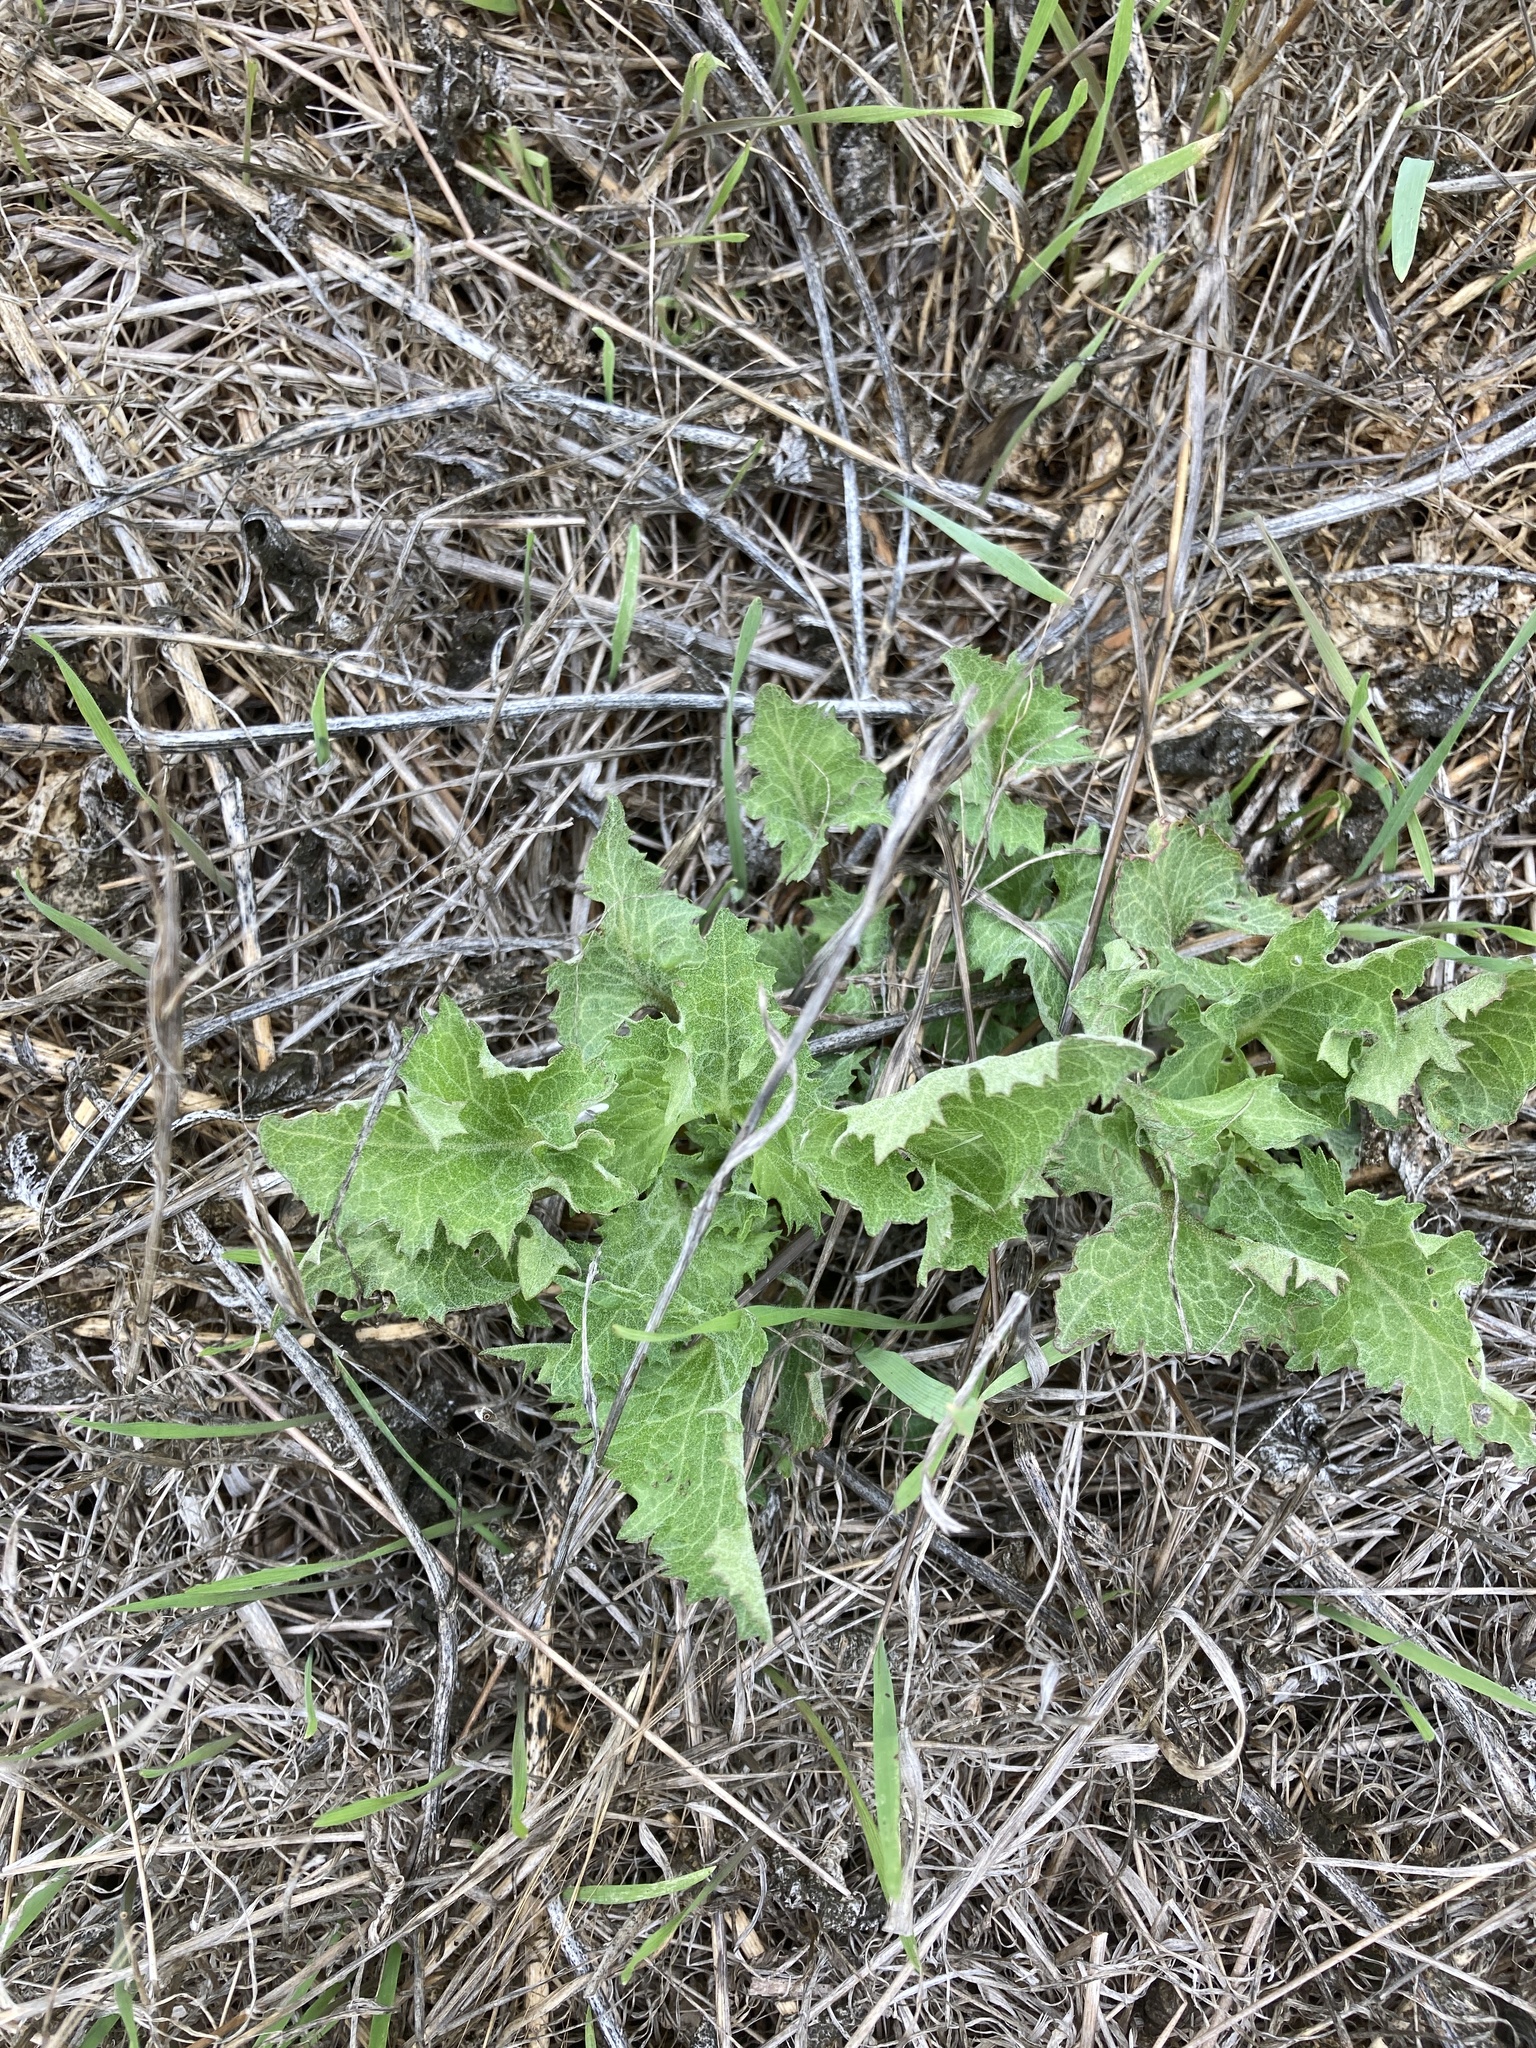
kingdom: Plantae
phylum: Tracheophyta
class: Magnoliopsida
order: Caryophyllales
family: Amaranthaceae
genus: Blitum
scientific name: Blitum californicum
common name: California goosefoot
